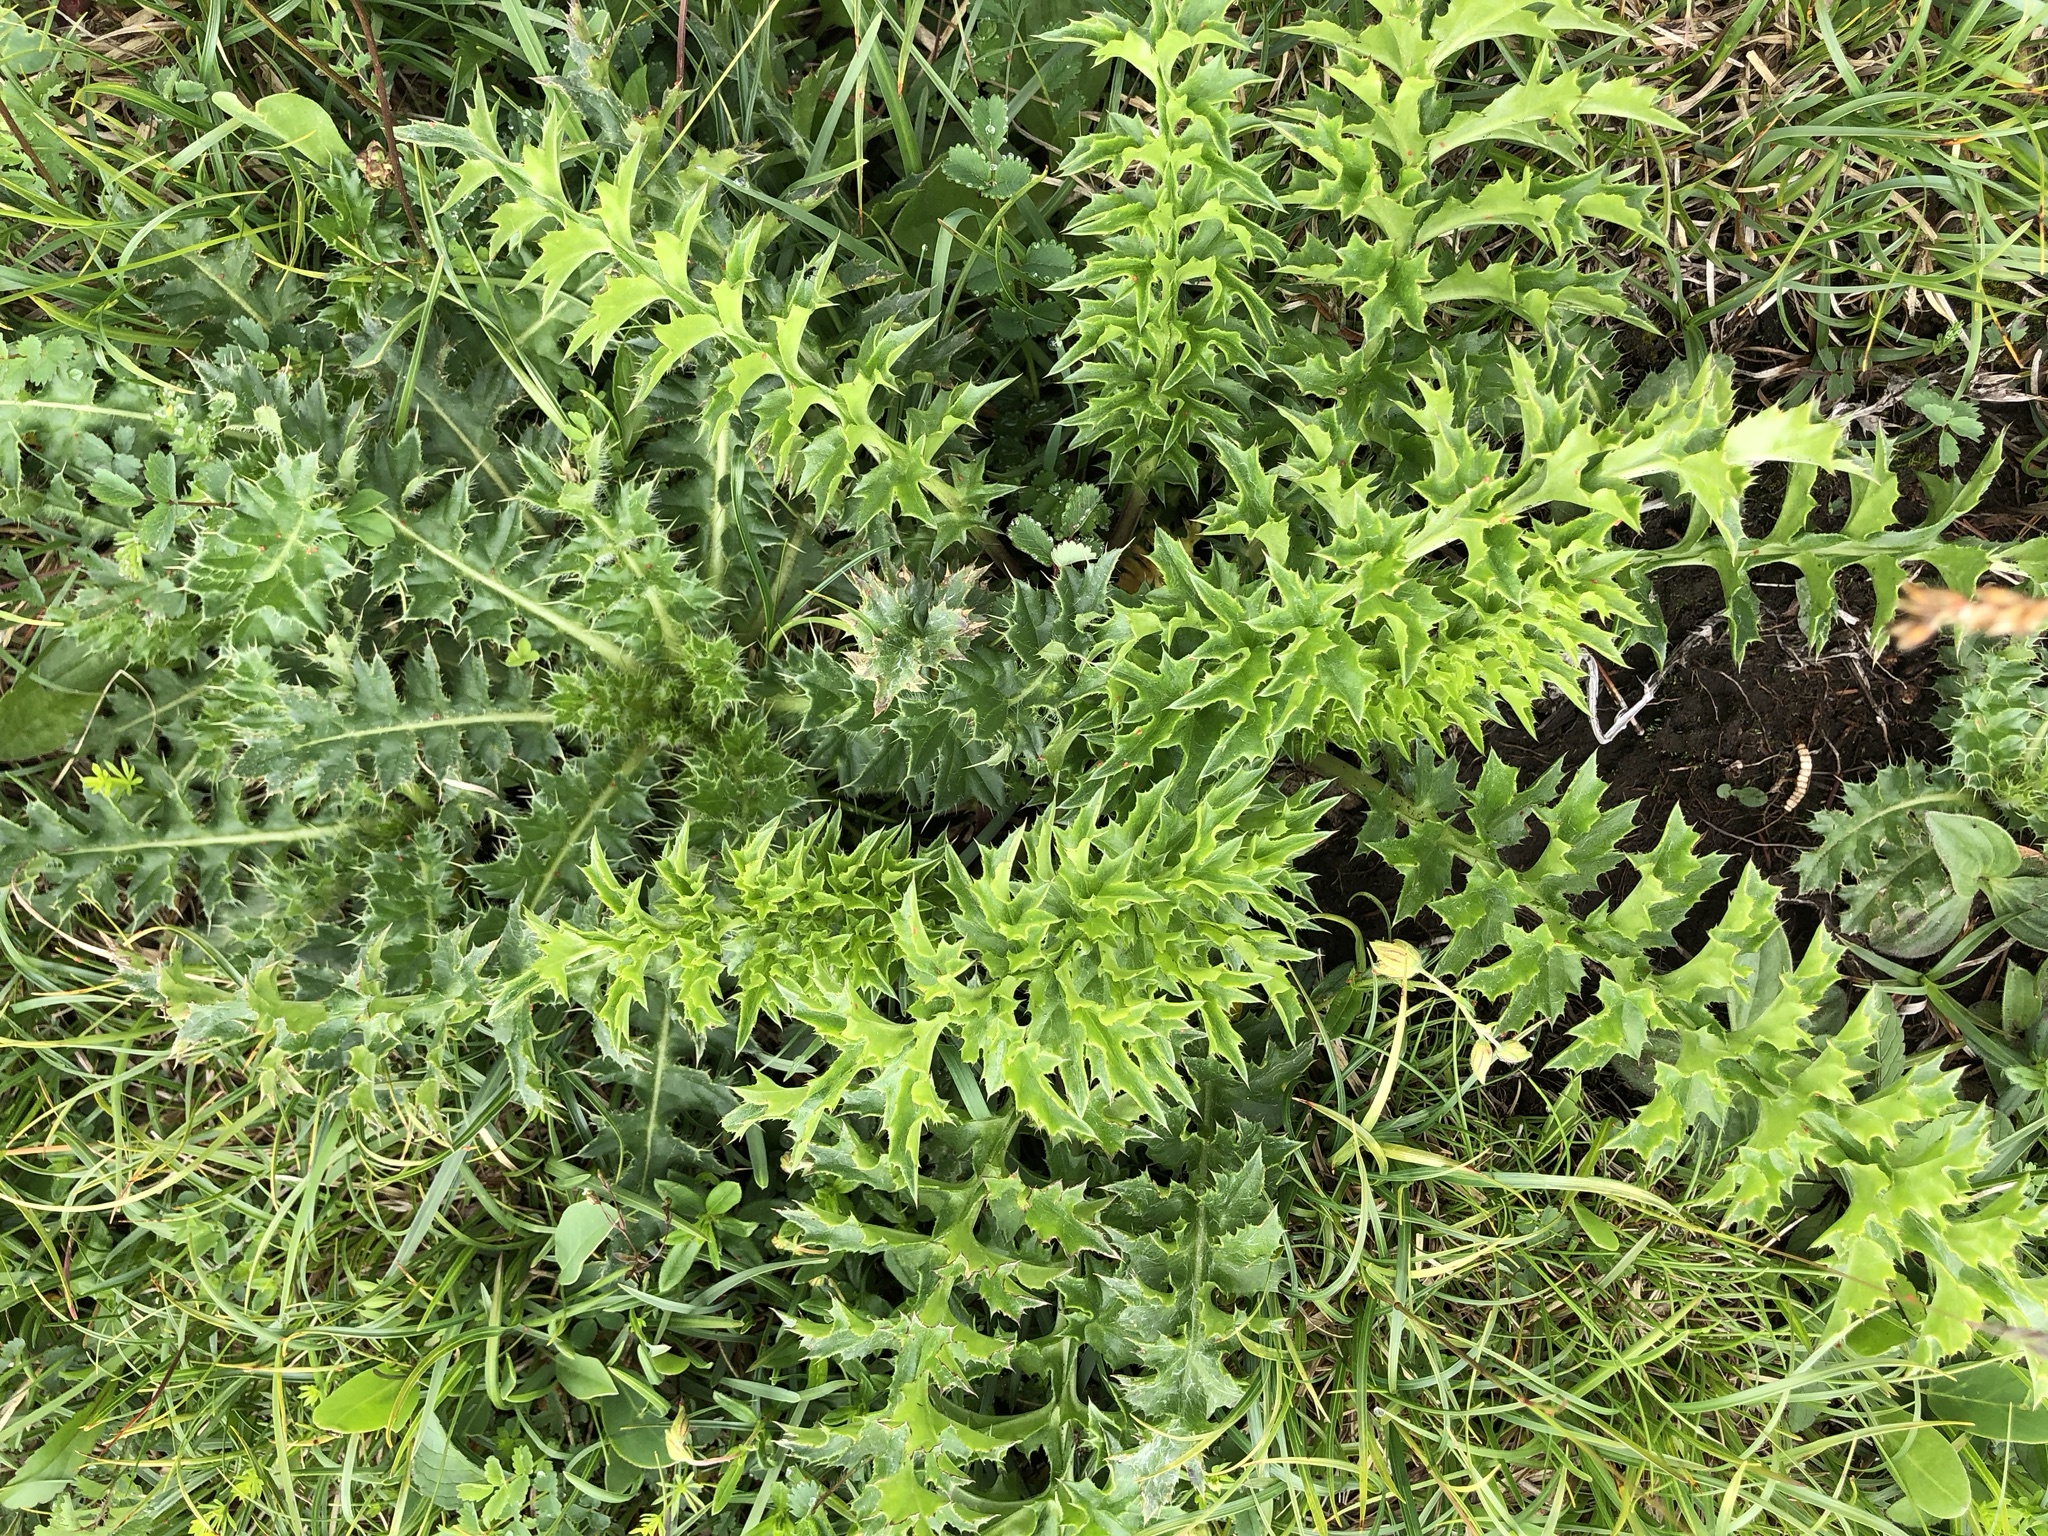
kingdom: Plantae
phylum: Tracheophyta
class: Magnoliopsida
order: Asterales
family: Asteraceae
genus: Carlina
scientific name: Carlina acaulis
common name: Stemless carline thistle
